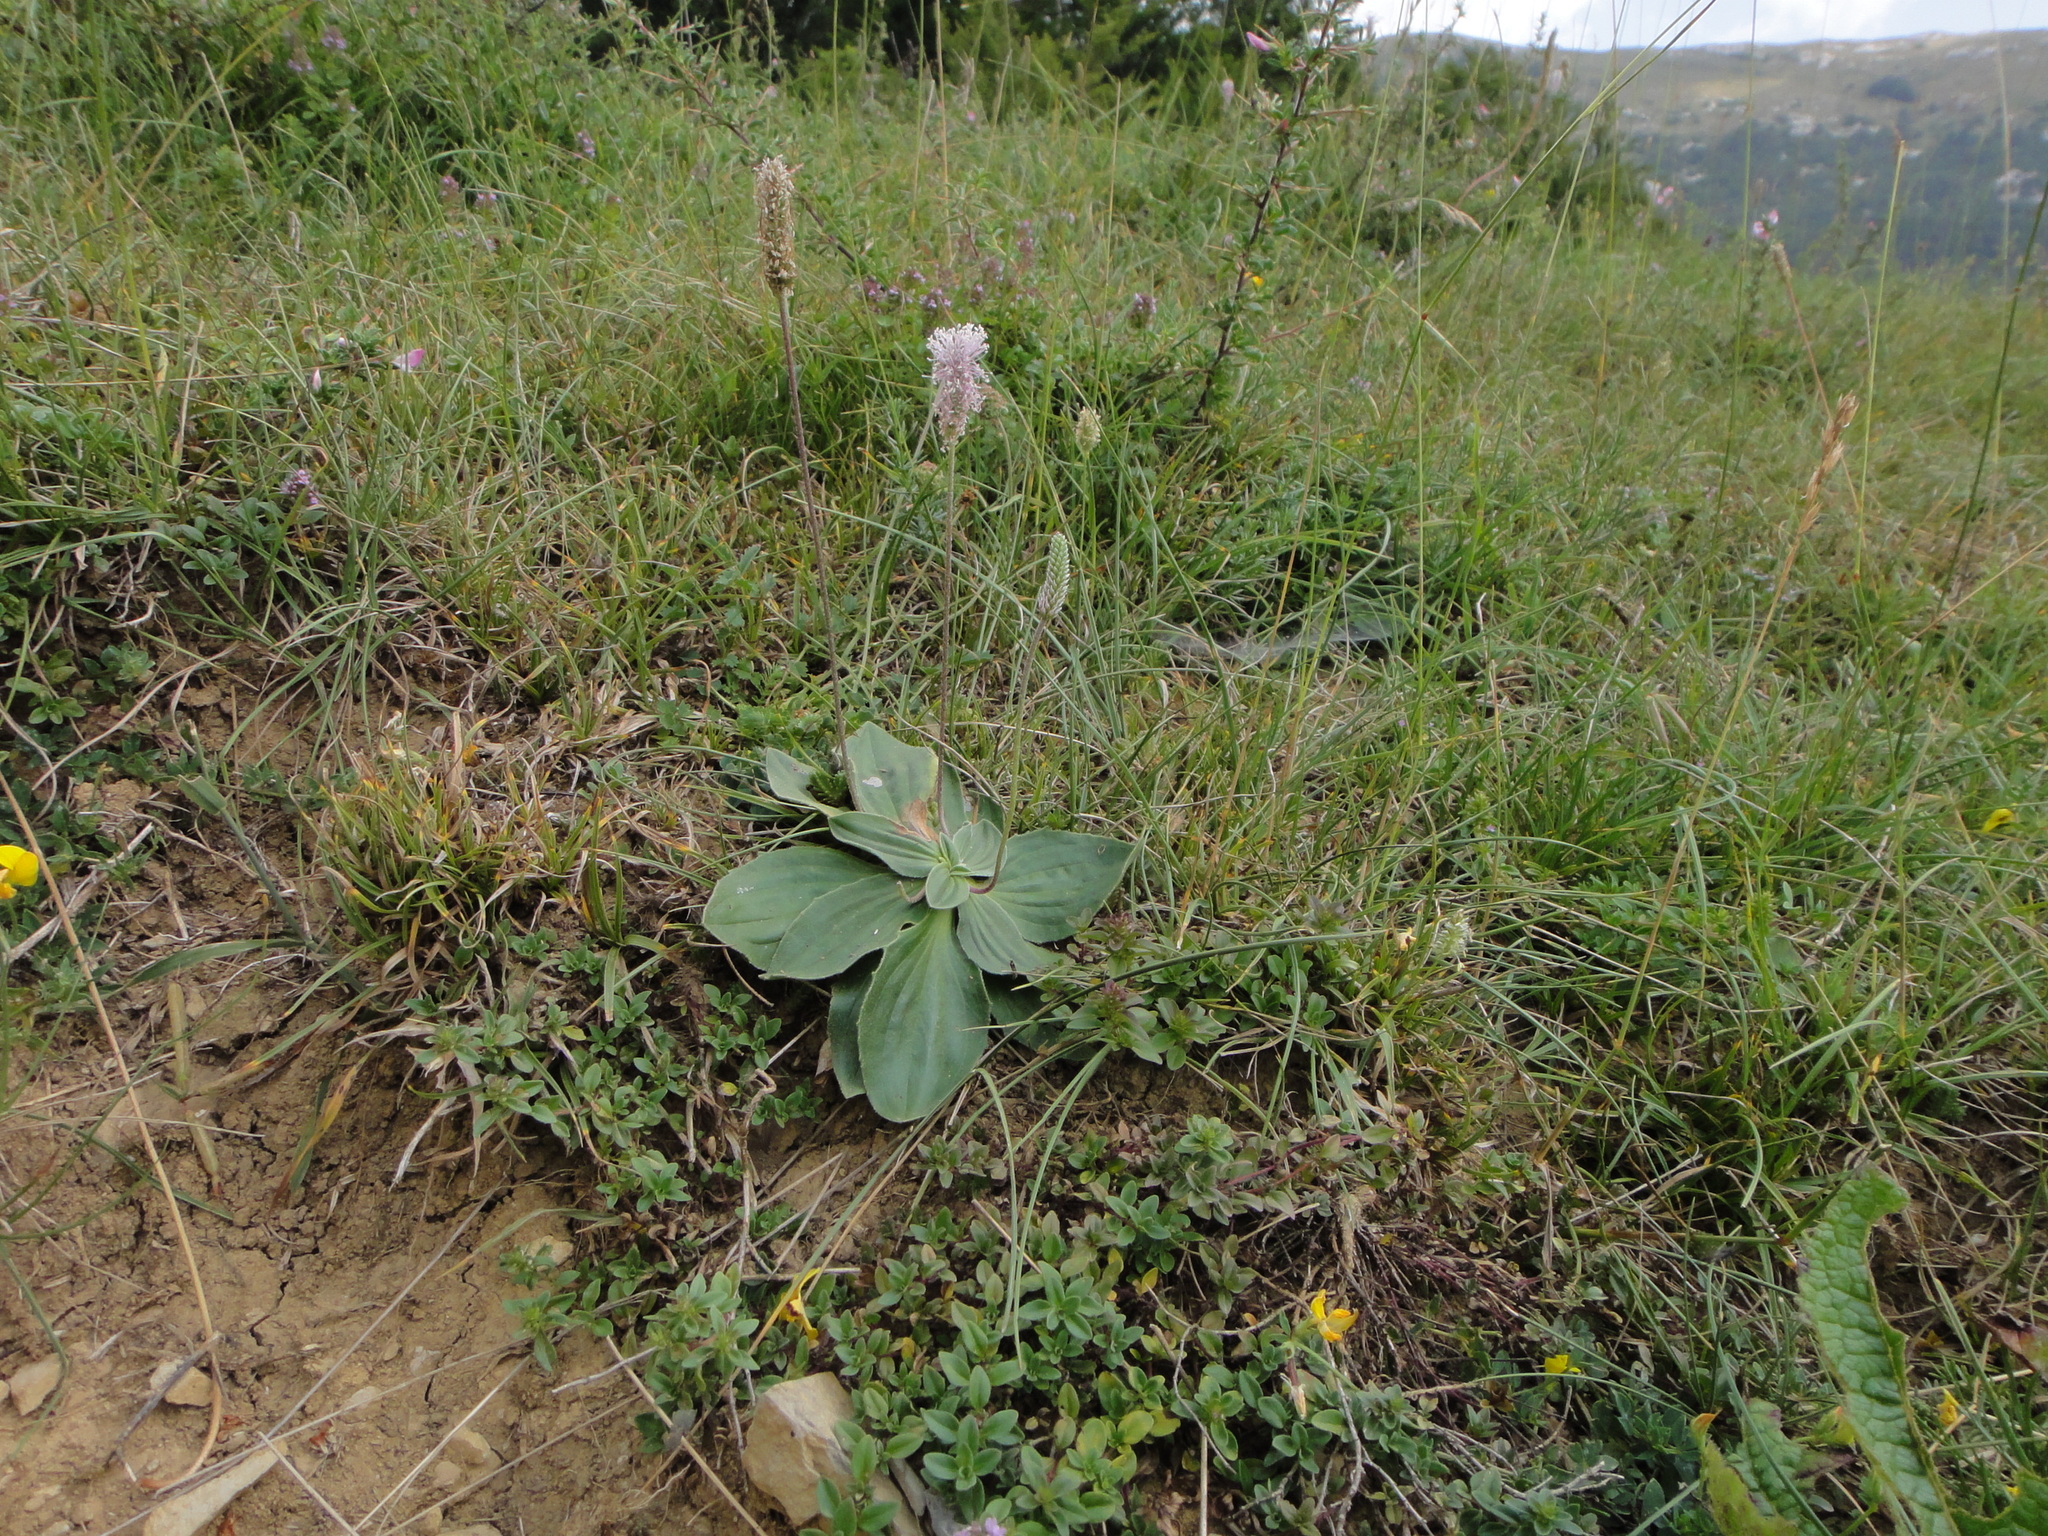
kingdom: Plantae
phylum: Tracheophyta
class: Magnoliopsida
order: Lamiales
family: Plantaginaceae
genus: Plantago
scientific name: Plantago media
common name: Hoary plantain
